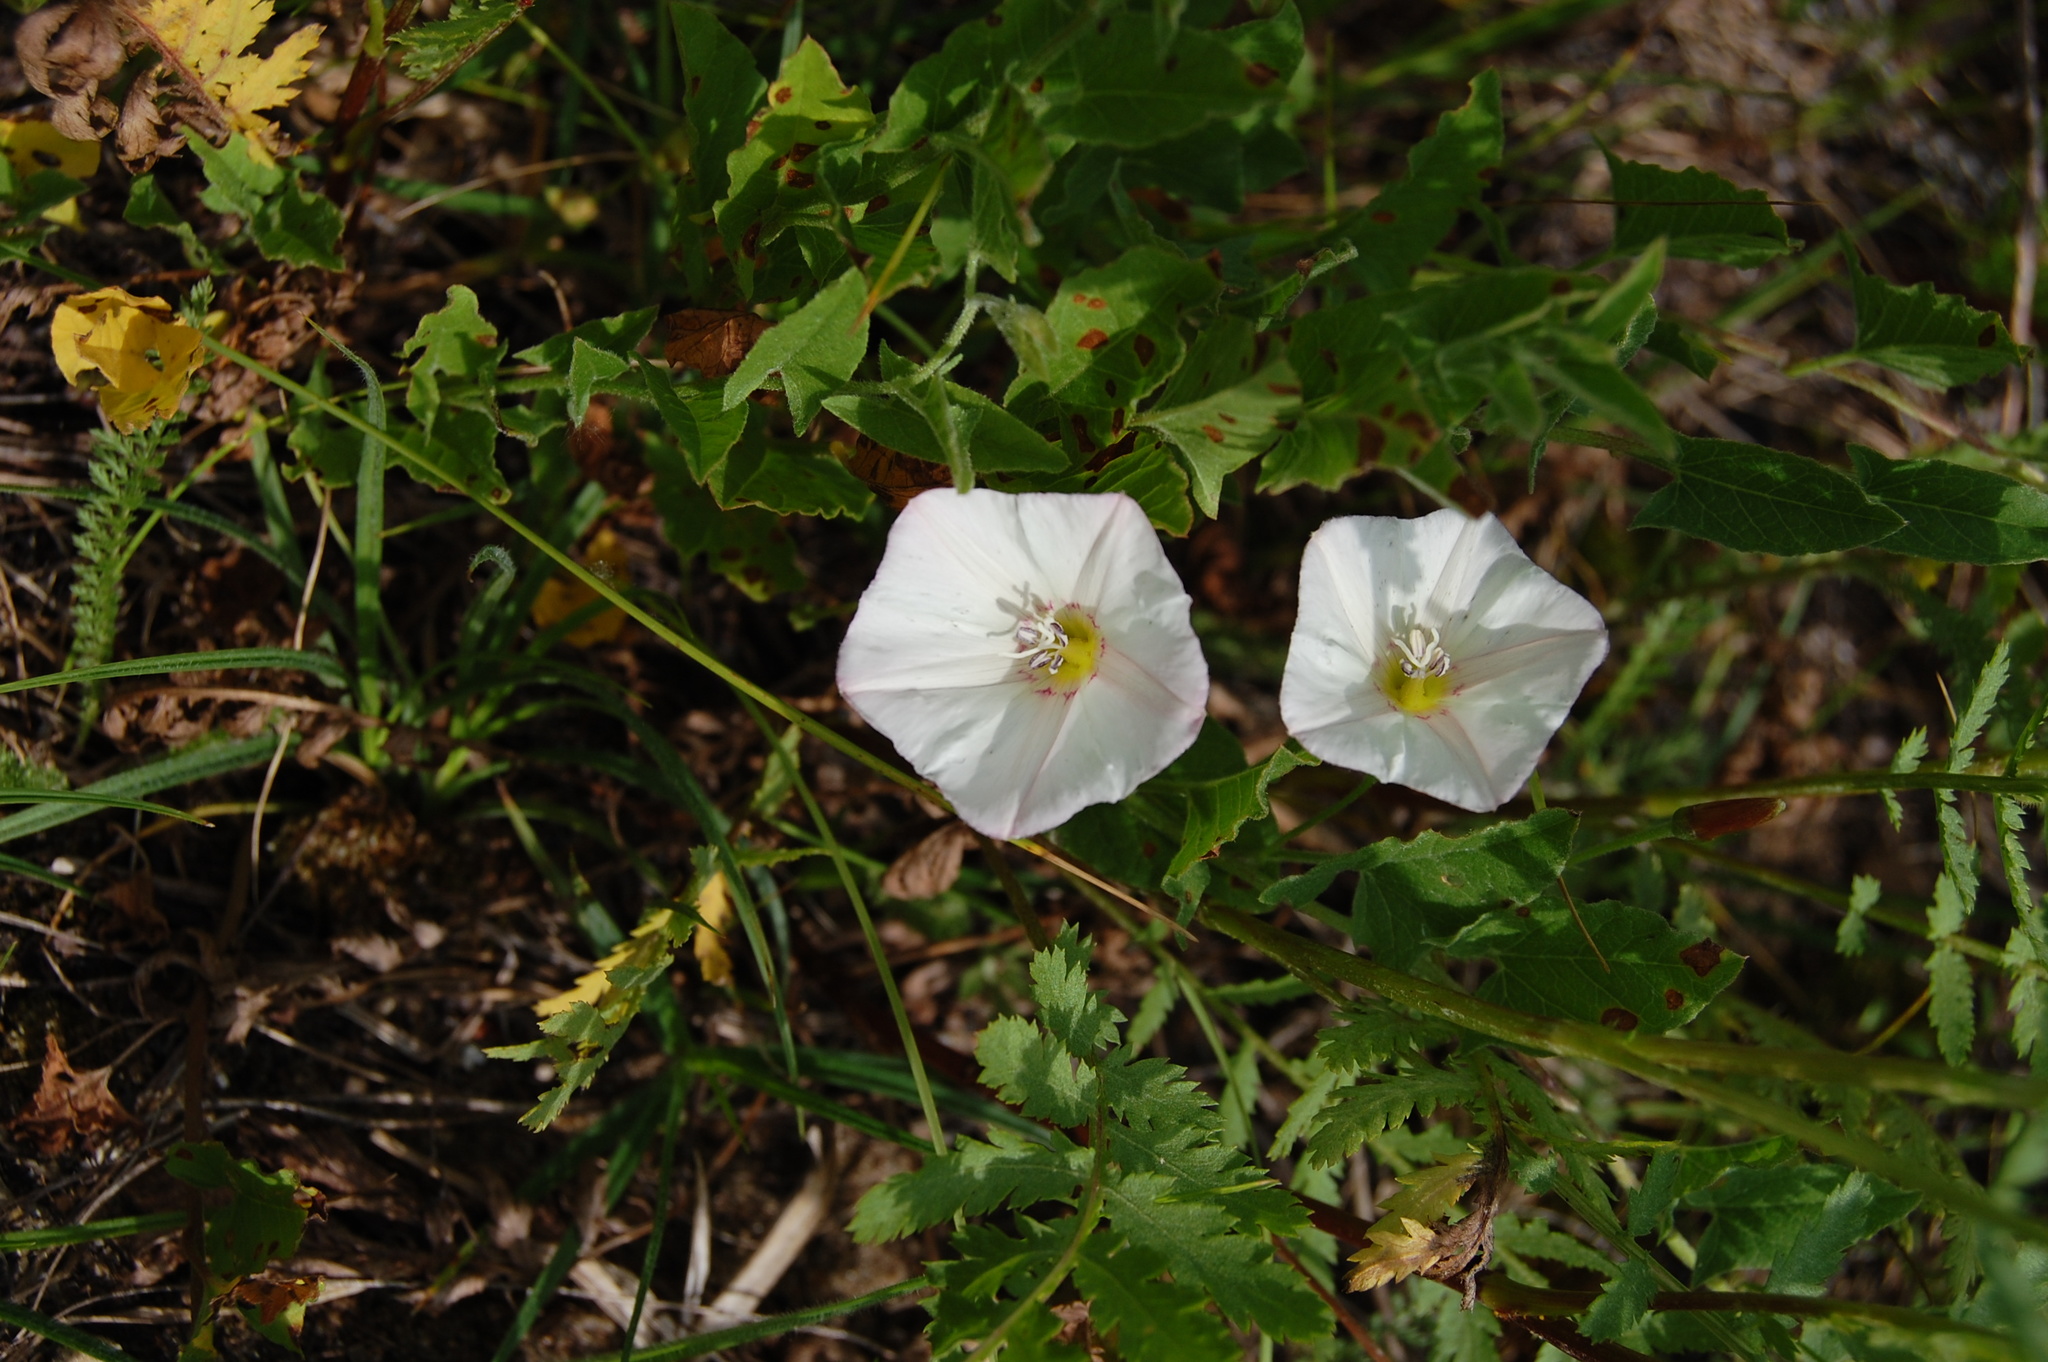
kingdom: Plantae
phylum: Tracheophyta
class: Magnoliopsida
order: Solanales
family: Convolvulaceae
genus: Convolvulus
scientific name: Convolvulus arvensis
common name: Field bindweed
